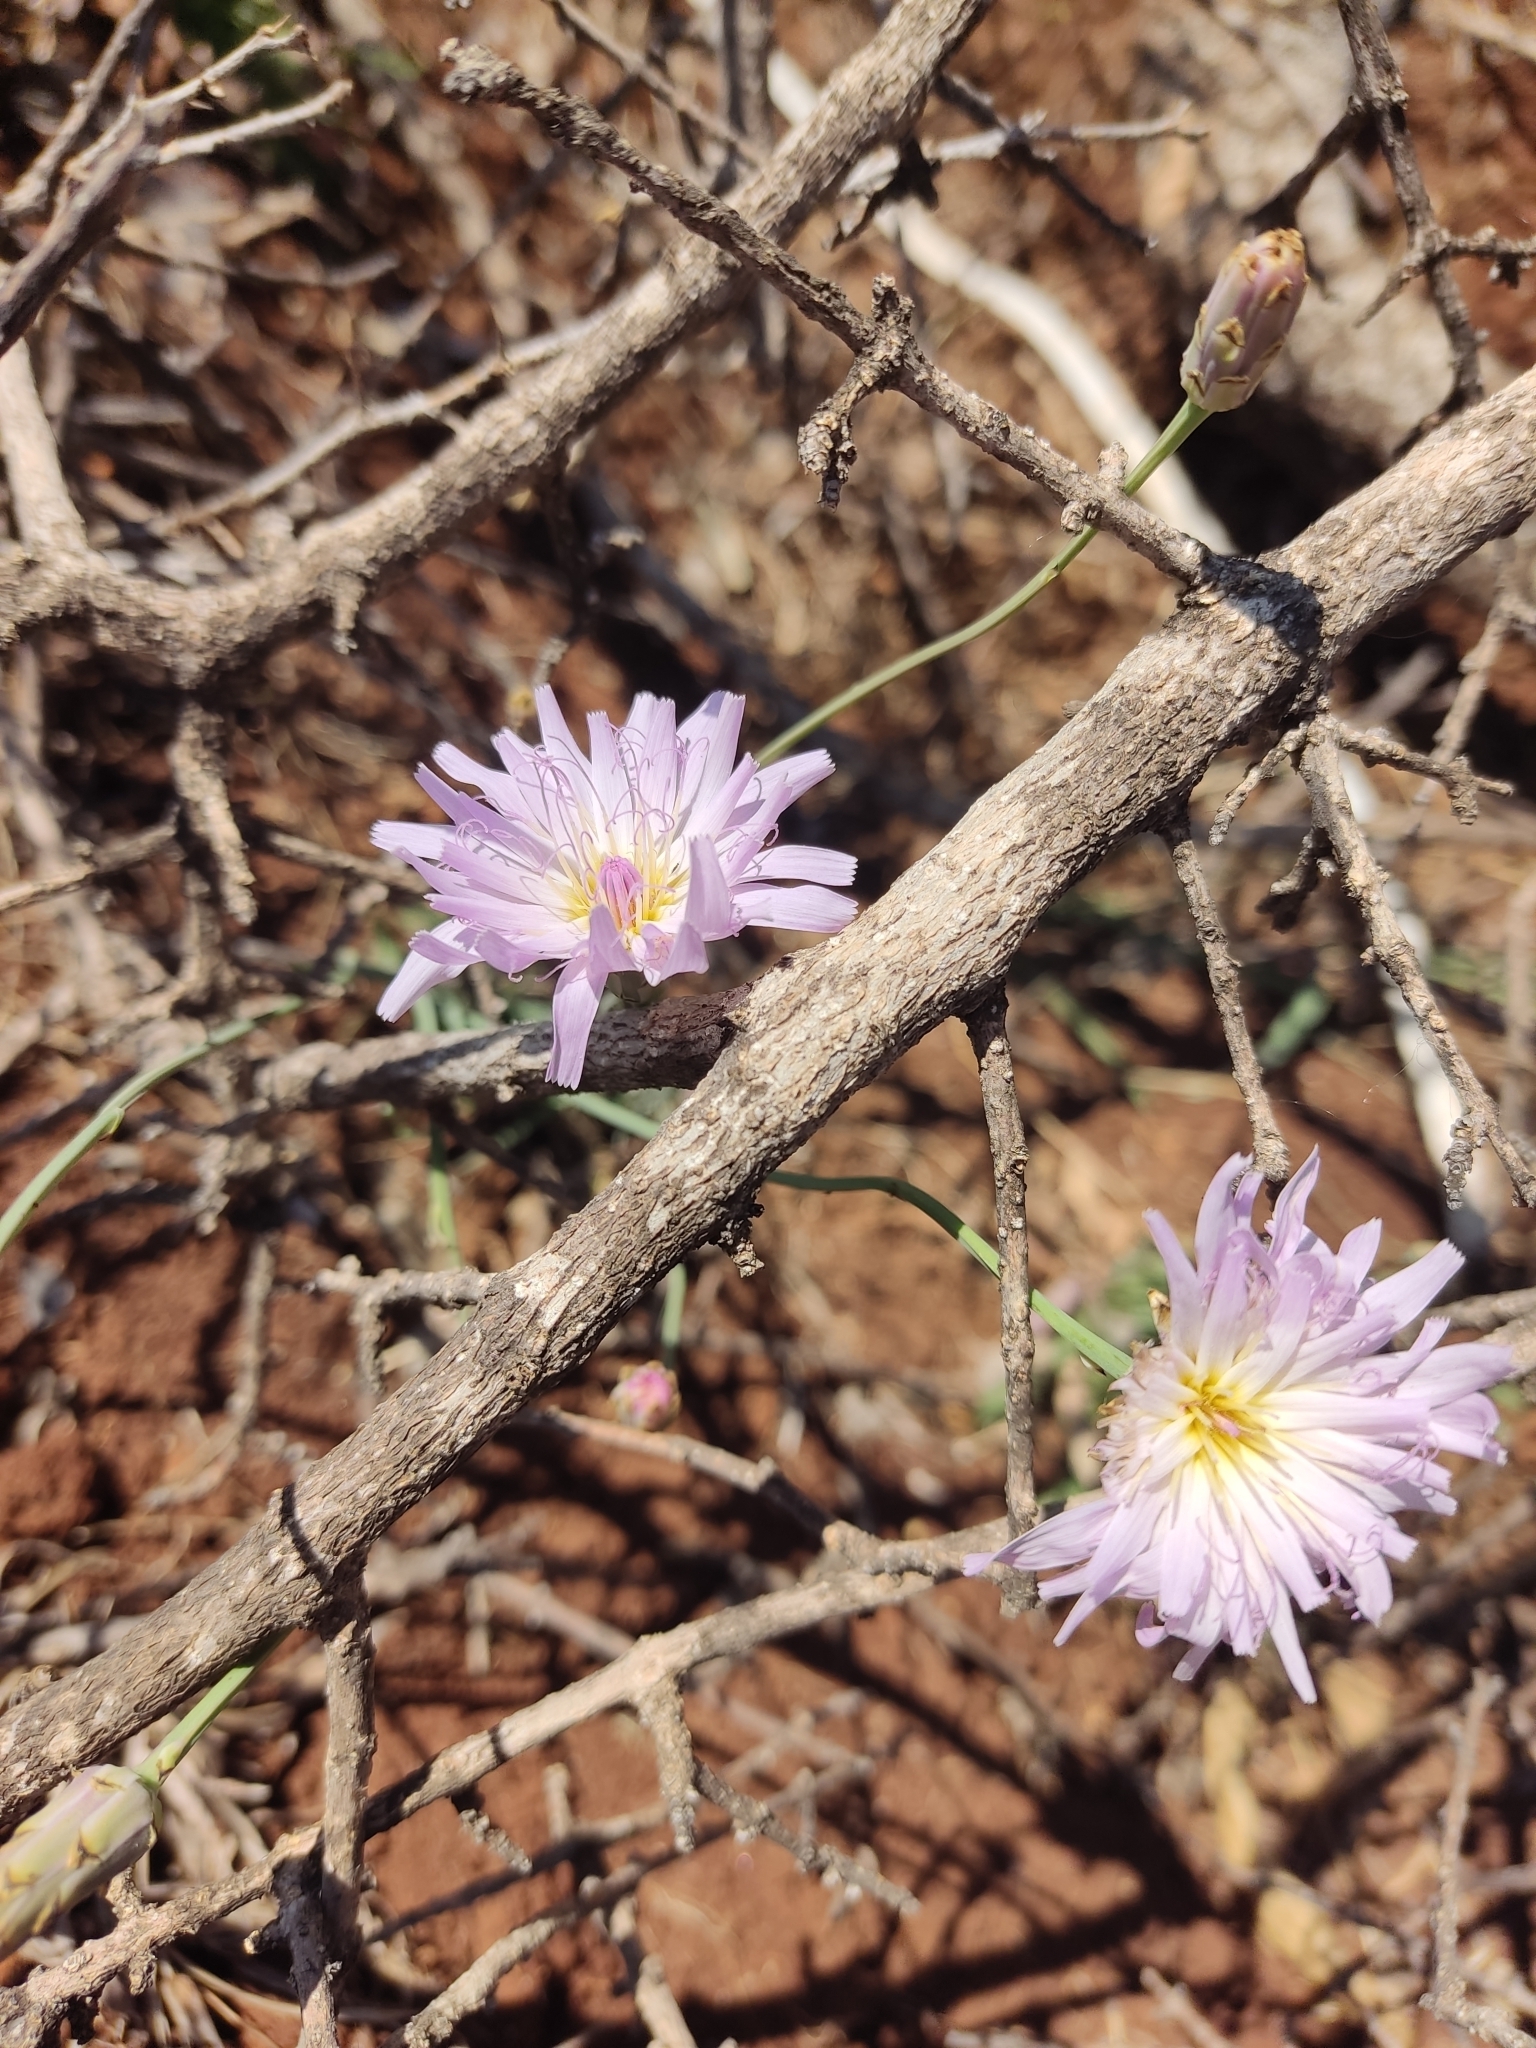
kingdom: Plantae
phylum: Tracheophyta
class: Magnoliopsida
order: Asterales
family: Asteraceae
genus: Pinaropappus
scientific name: Pinaropappus roseus
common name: Rock-lettuce
